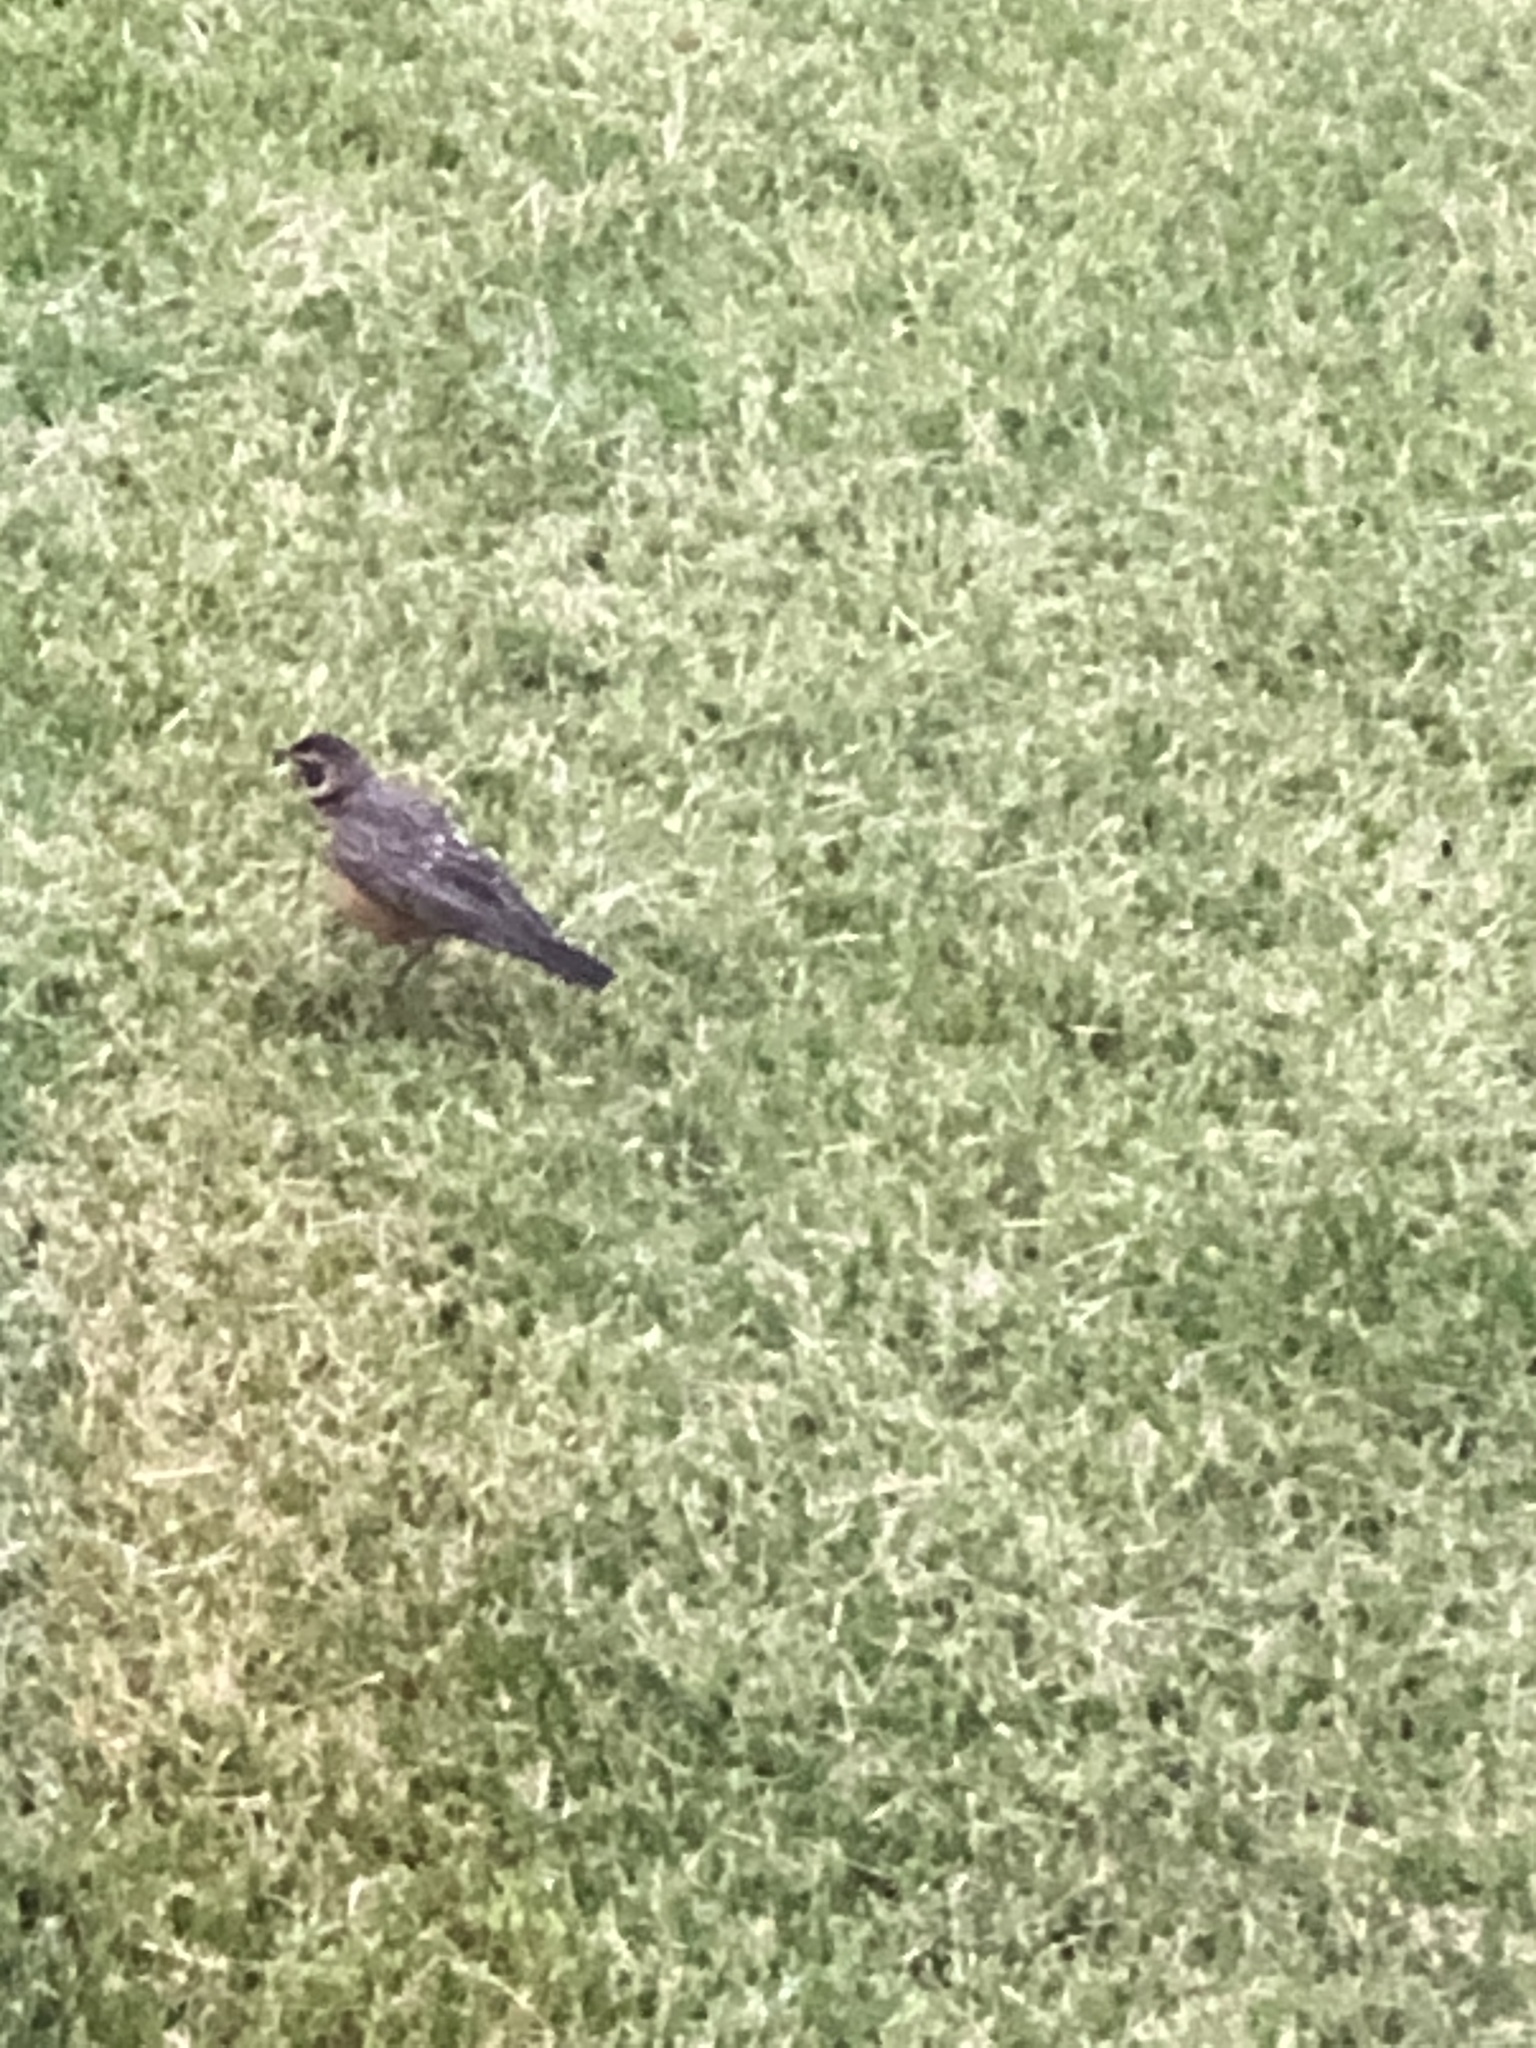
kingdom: Animalia
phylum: Chordata
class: Aves
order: Passeriformes
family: Turdidae
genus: Turdus
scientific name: Turdus migratorius
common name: American robin
